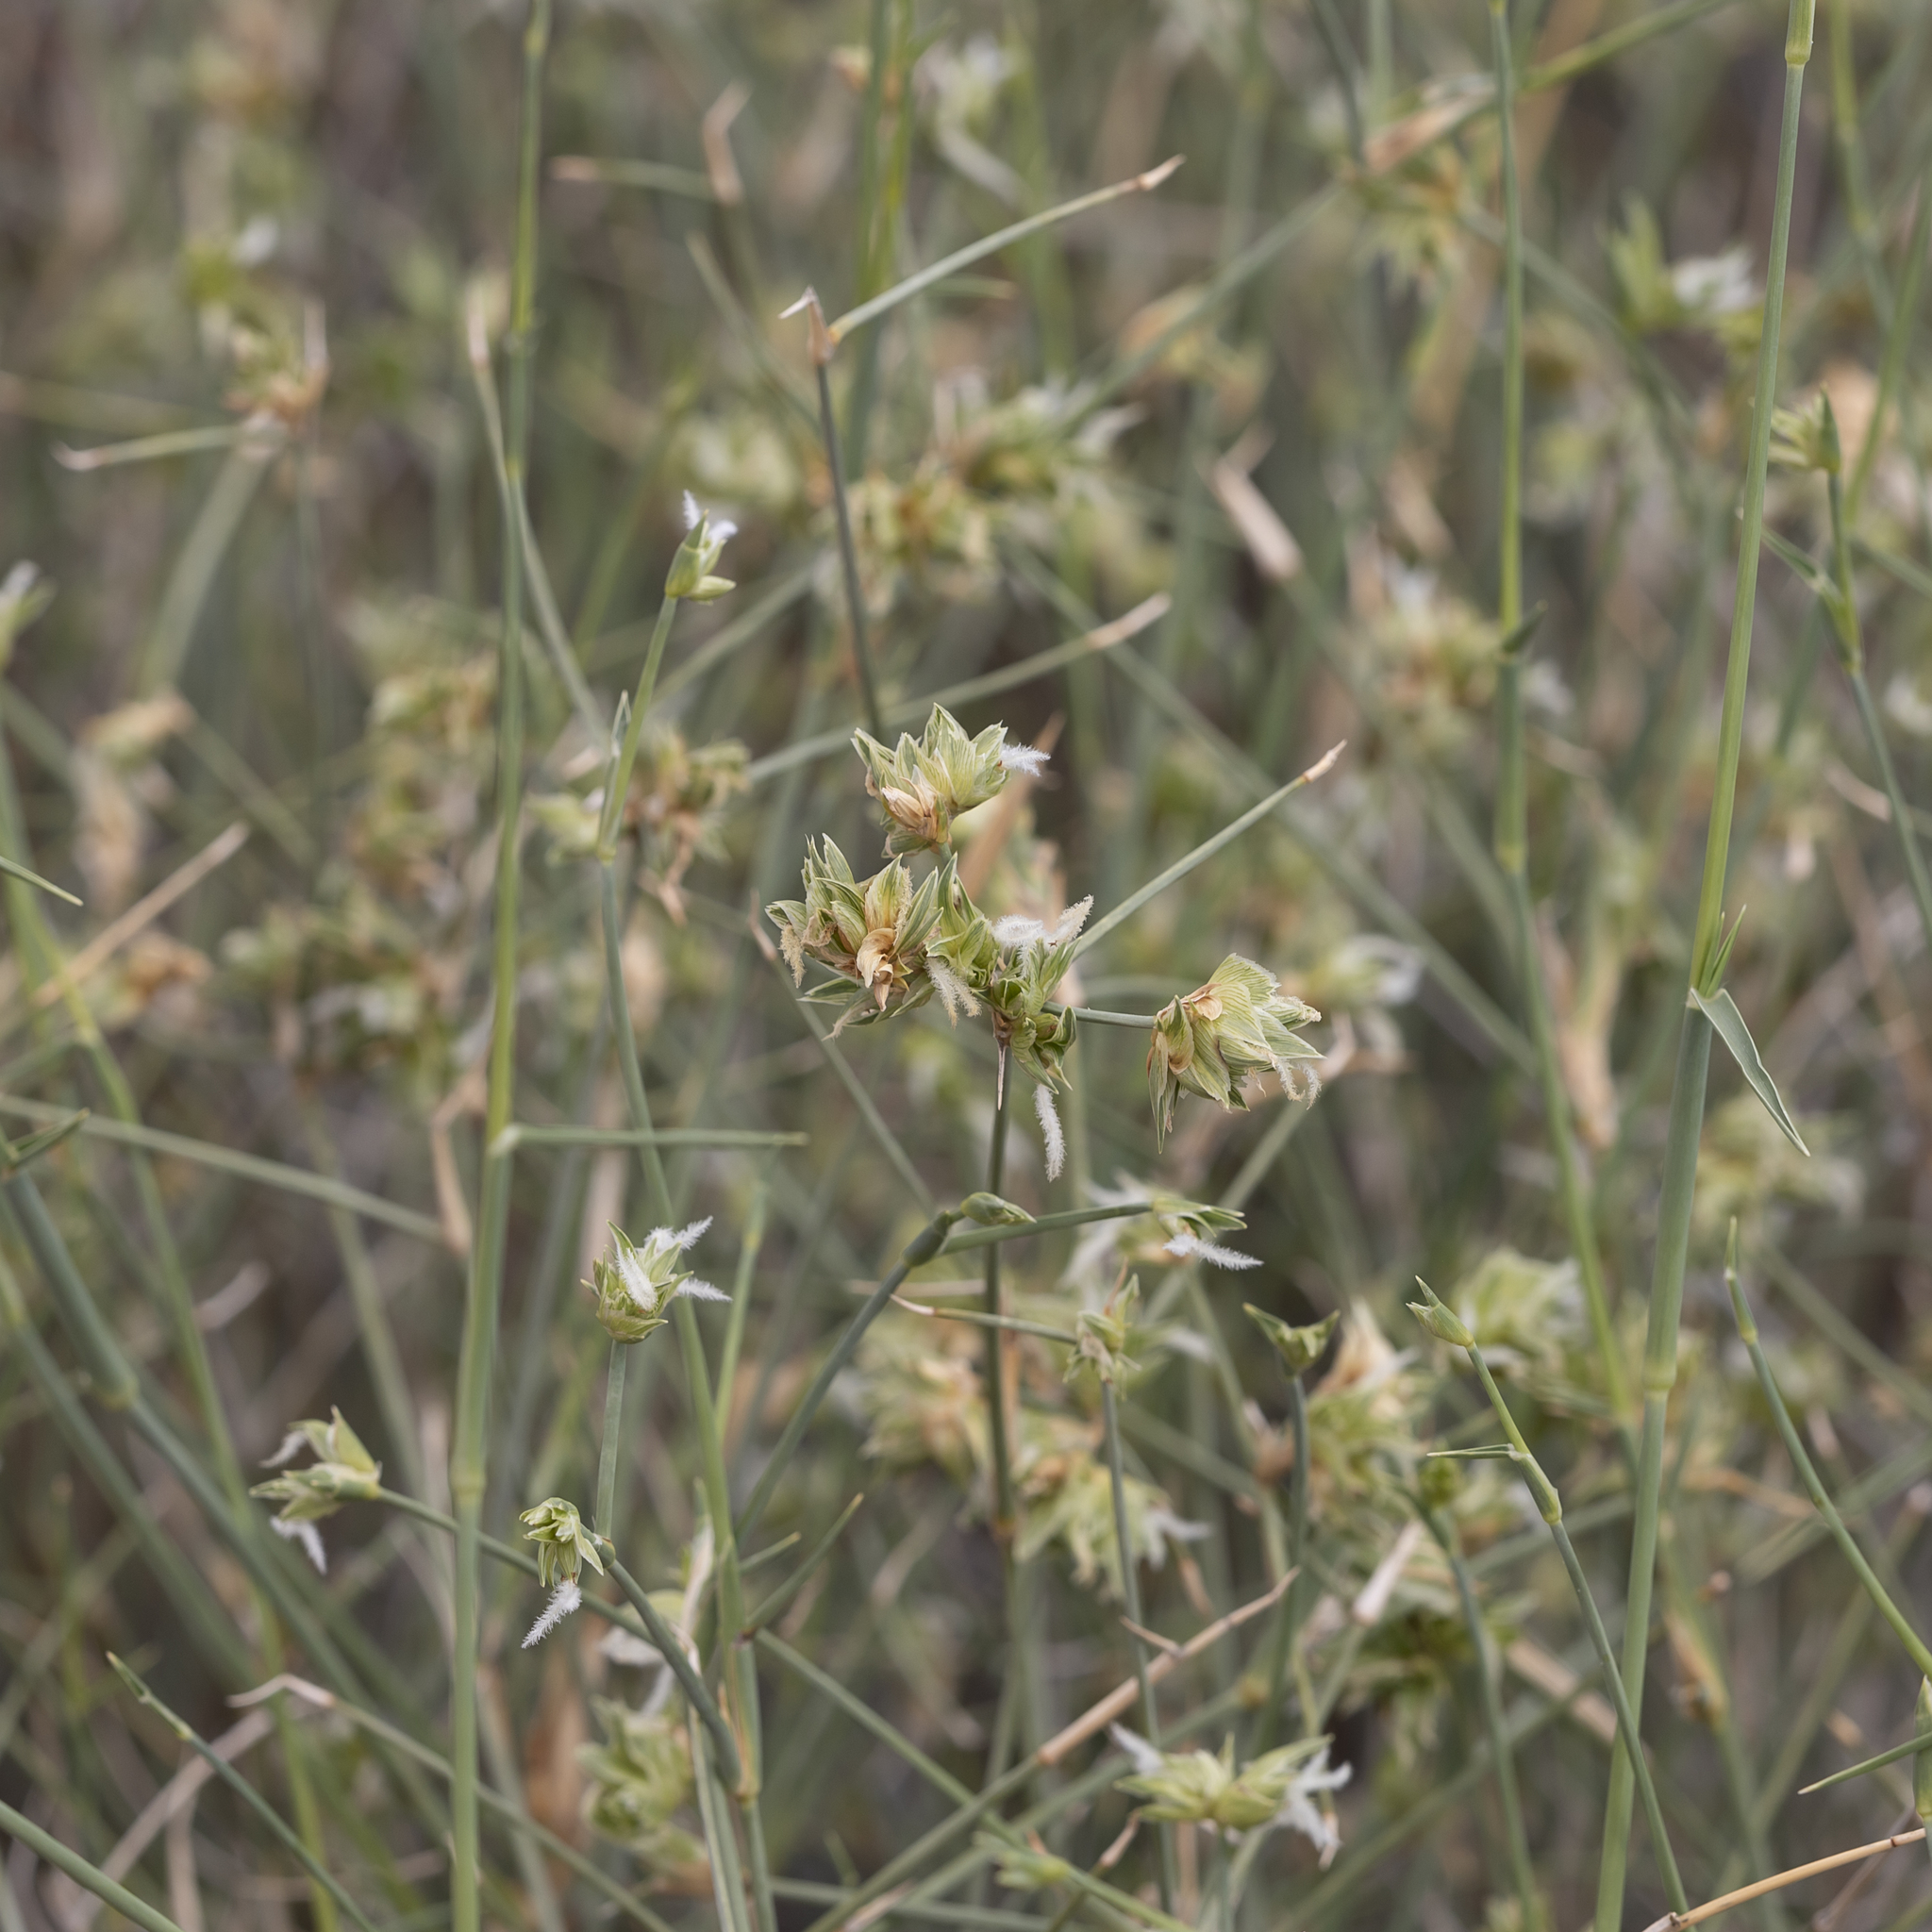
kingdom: Plantae
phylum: Tracheophyta
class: Liliopsida
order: Poales
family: Poaceae
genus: Zygochloa
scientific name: Zygochloa paradoxa
